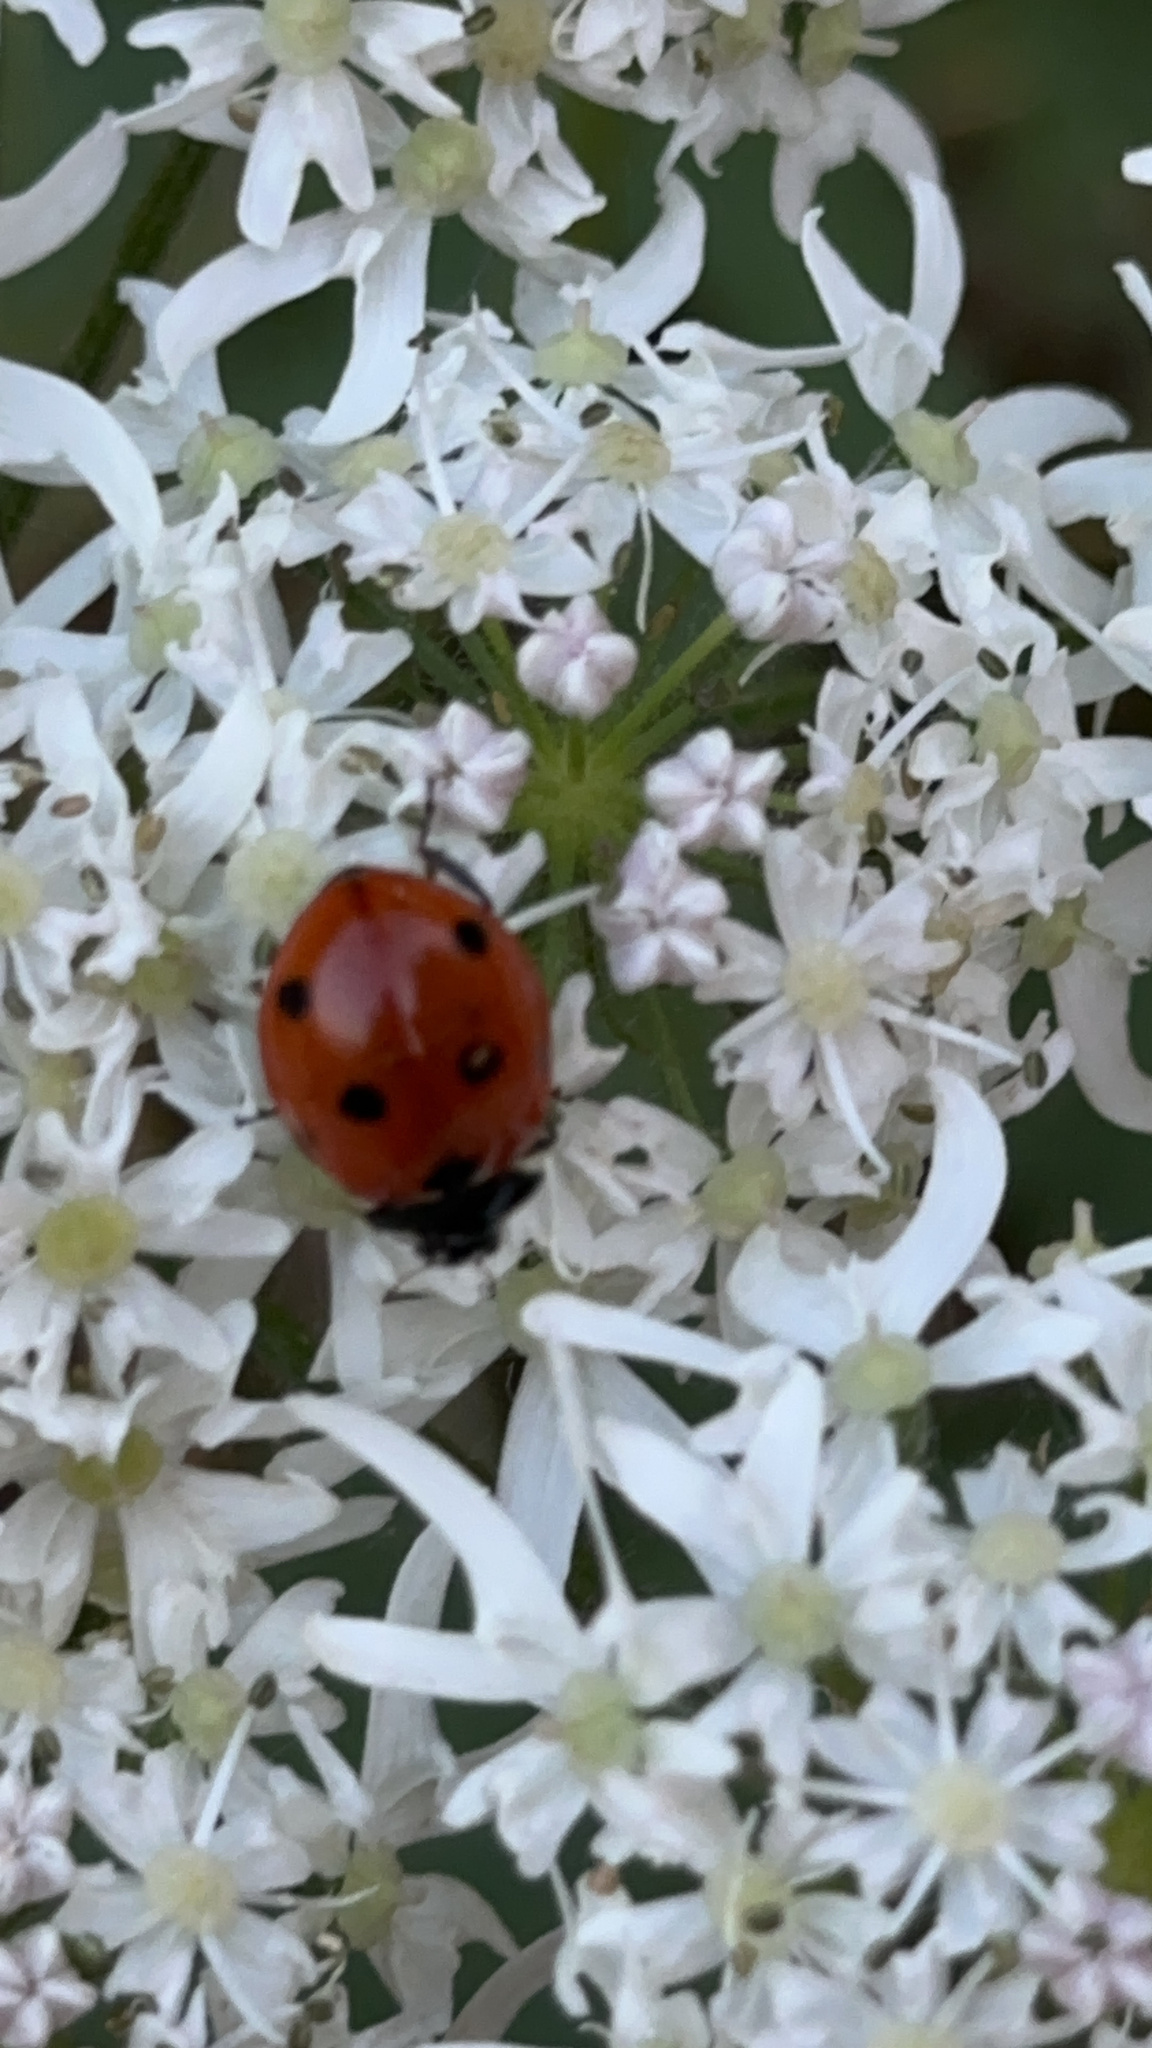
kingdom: Animalia
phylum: Arthropoda
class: Insecta
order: Coleoptera
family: Coccinellidae
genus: Coccinella
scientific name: Coccinella septempunctata
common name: Sevenspotted lady beetle
